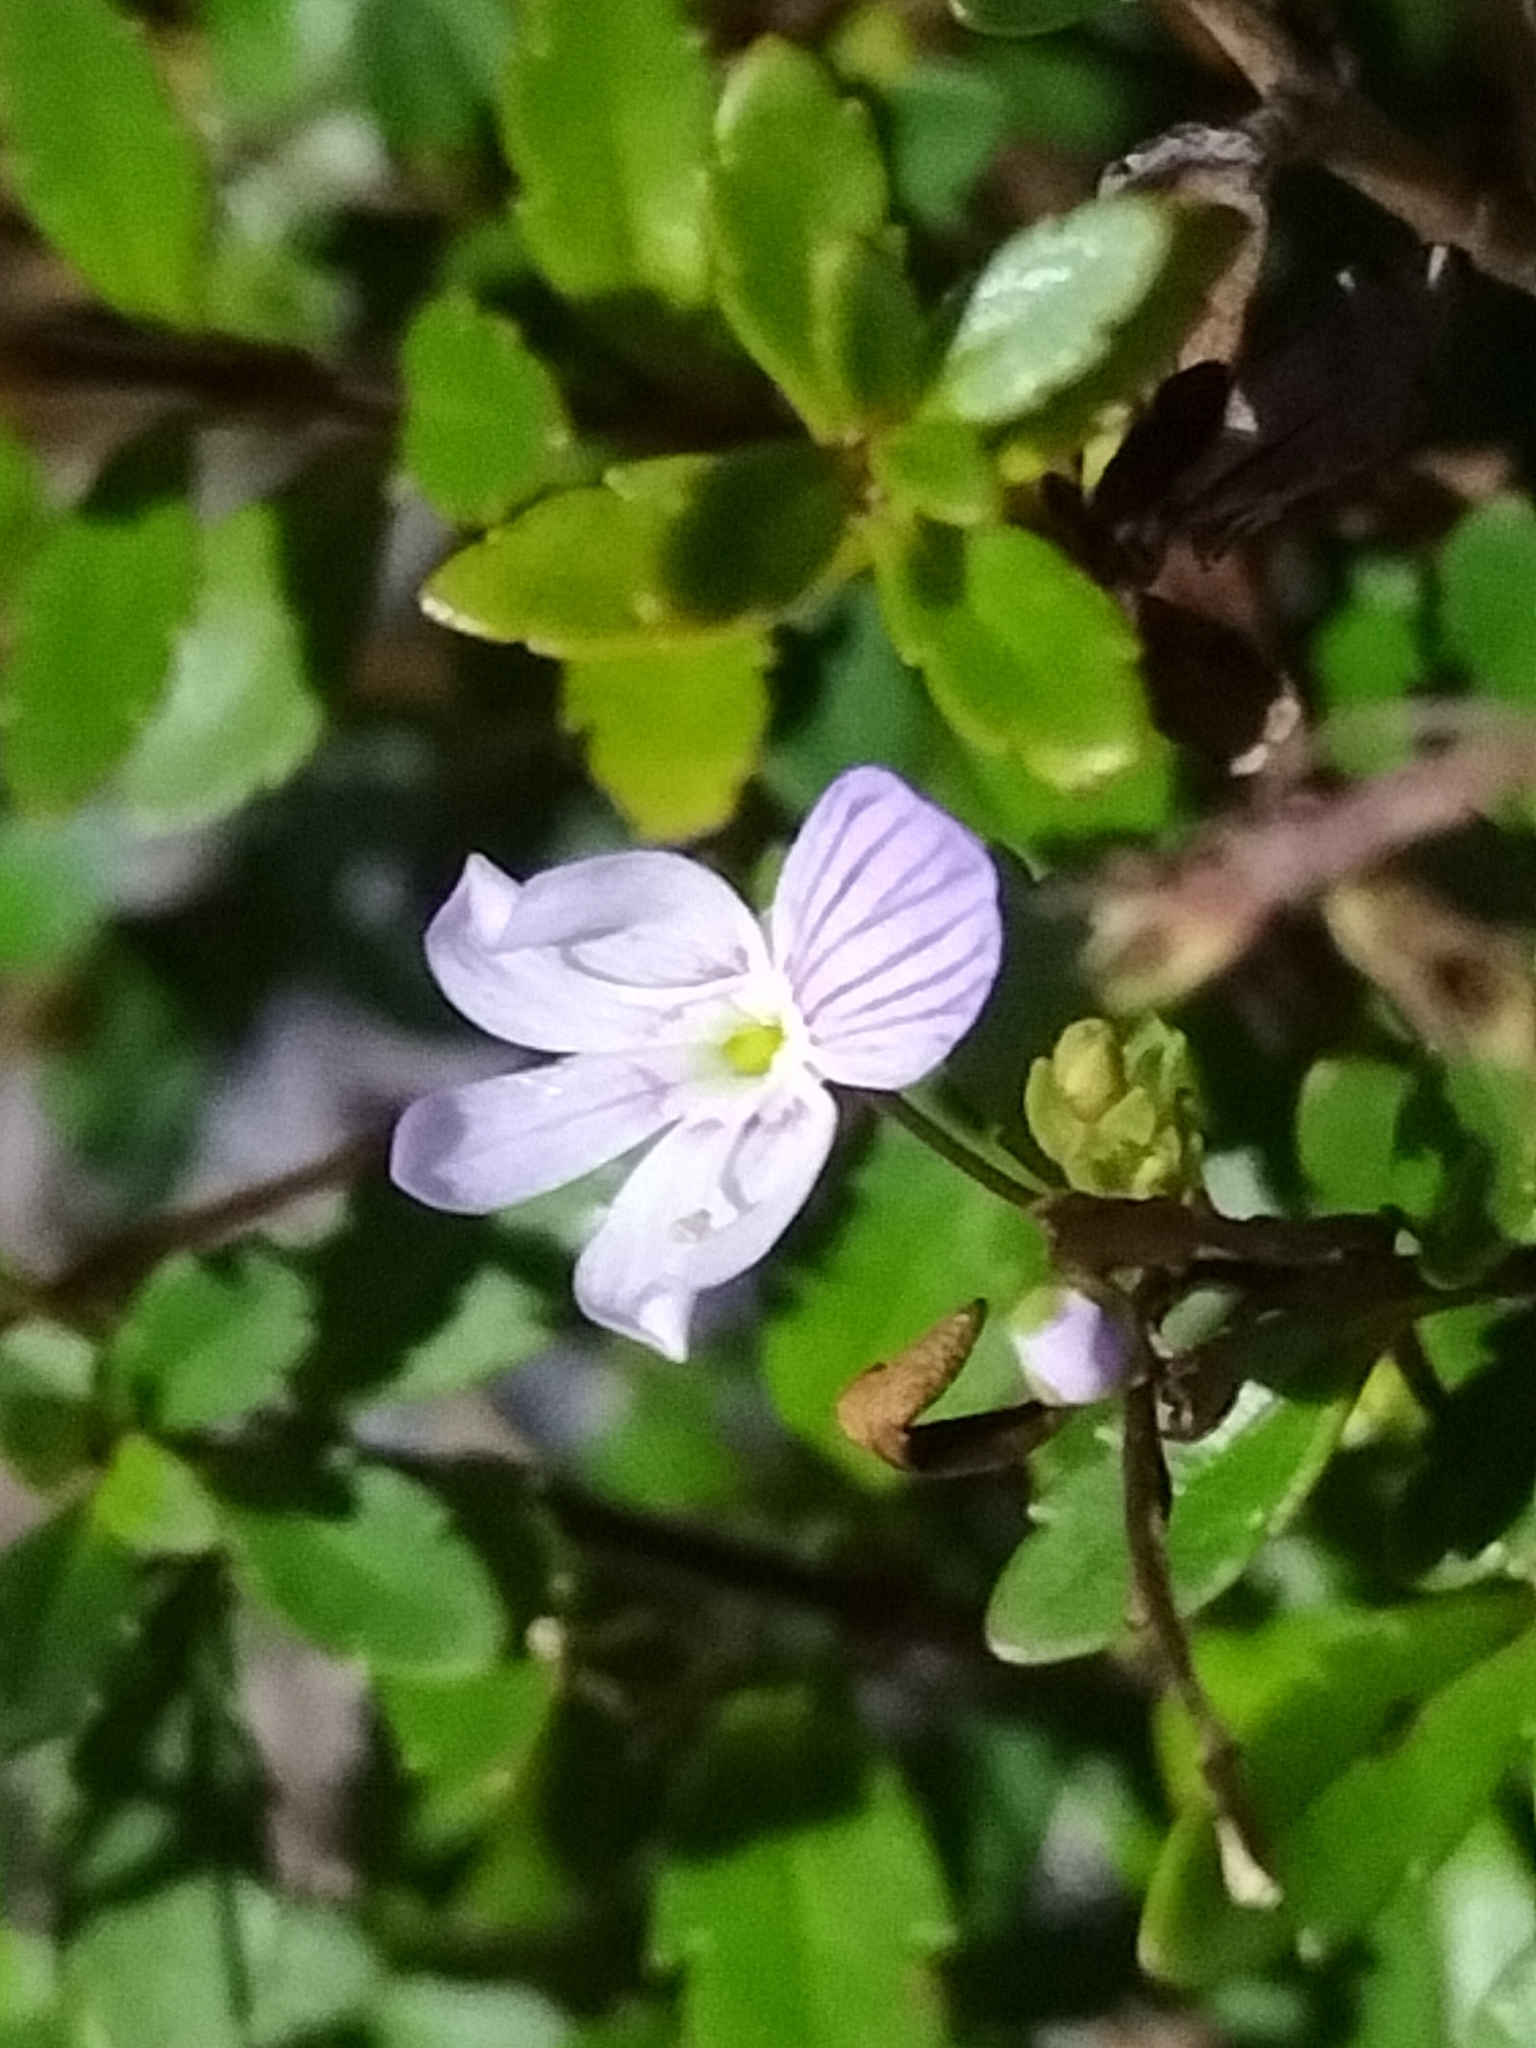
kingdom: Plantae
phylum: Tracheophyta
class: Magnoliopsida
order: Lamiales
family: Plantaginaceae
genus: Veronica
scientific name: Veronica lyallii
